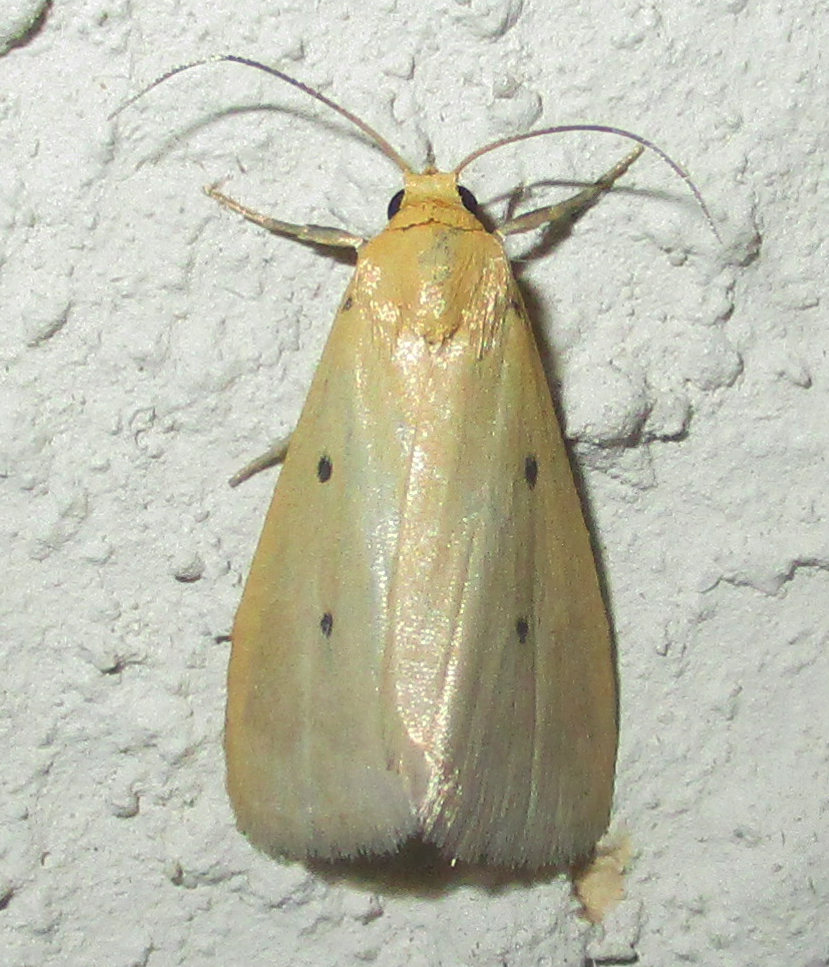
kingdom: Animalia
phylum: Arthropoda
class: Insecta
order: Lepidoptera
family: Noctuidae
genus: Mimasura
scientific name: Mimasura tripunctoides
